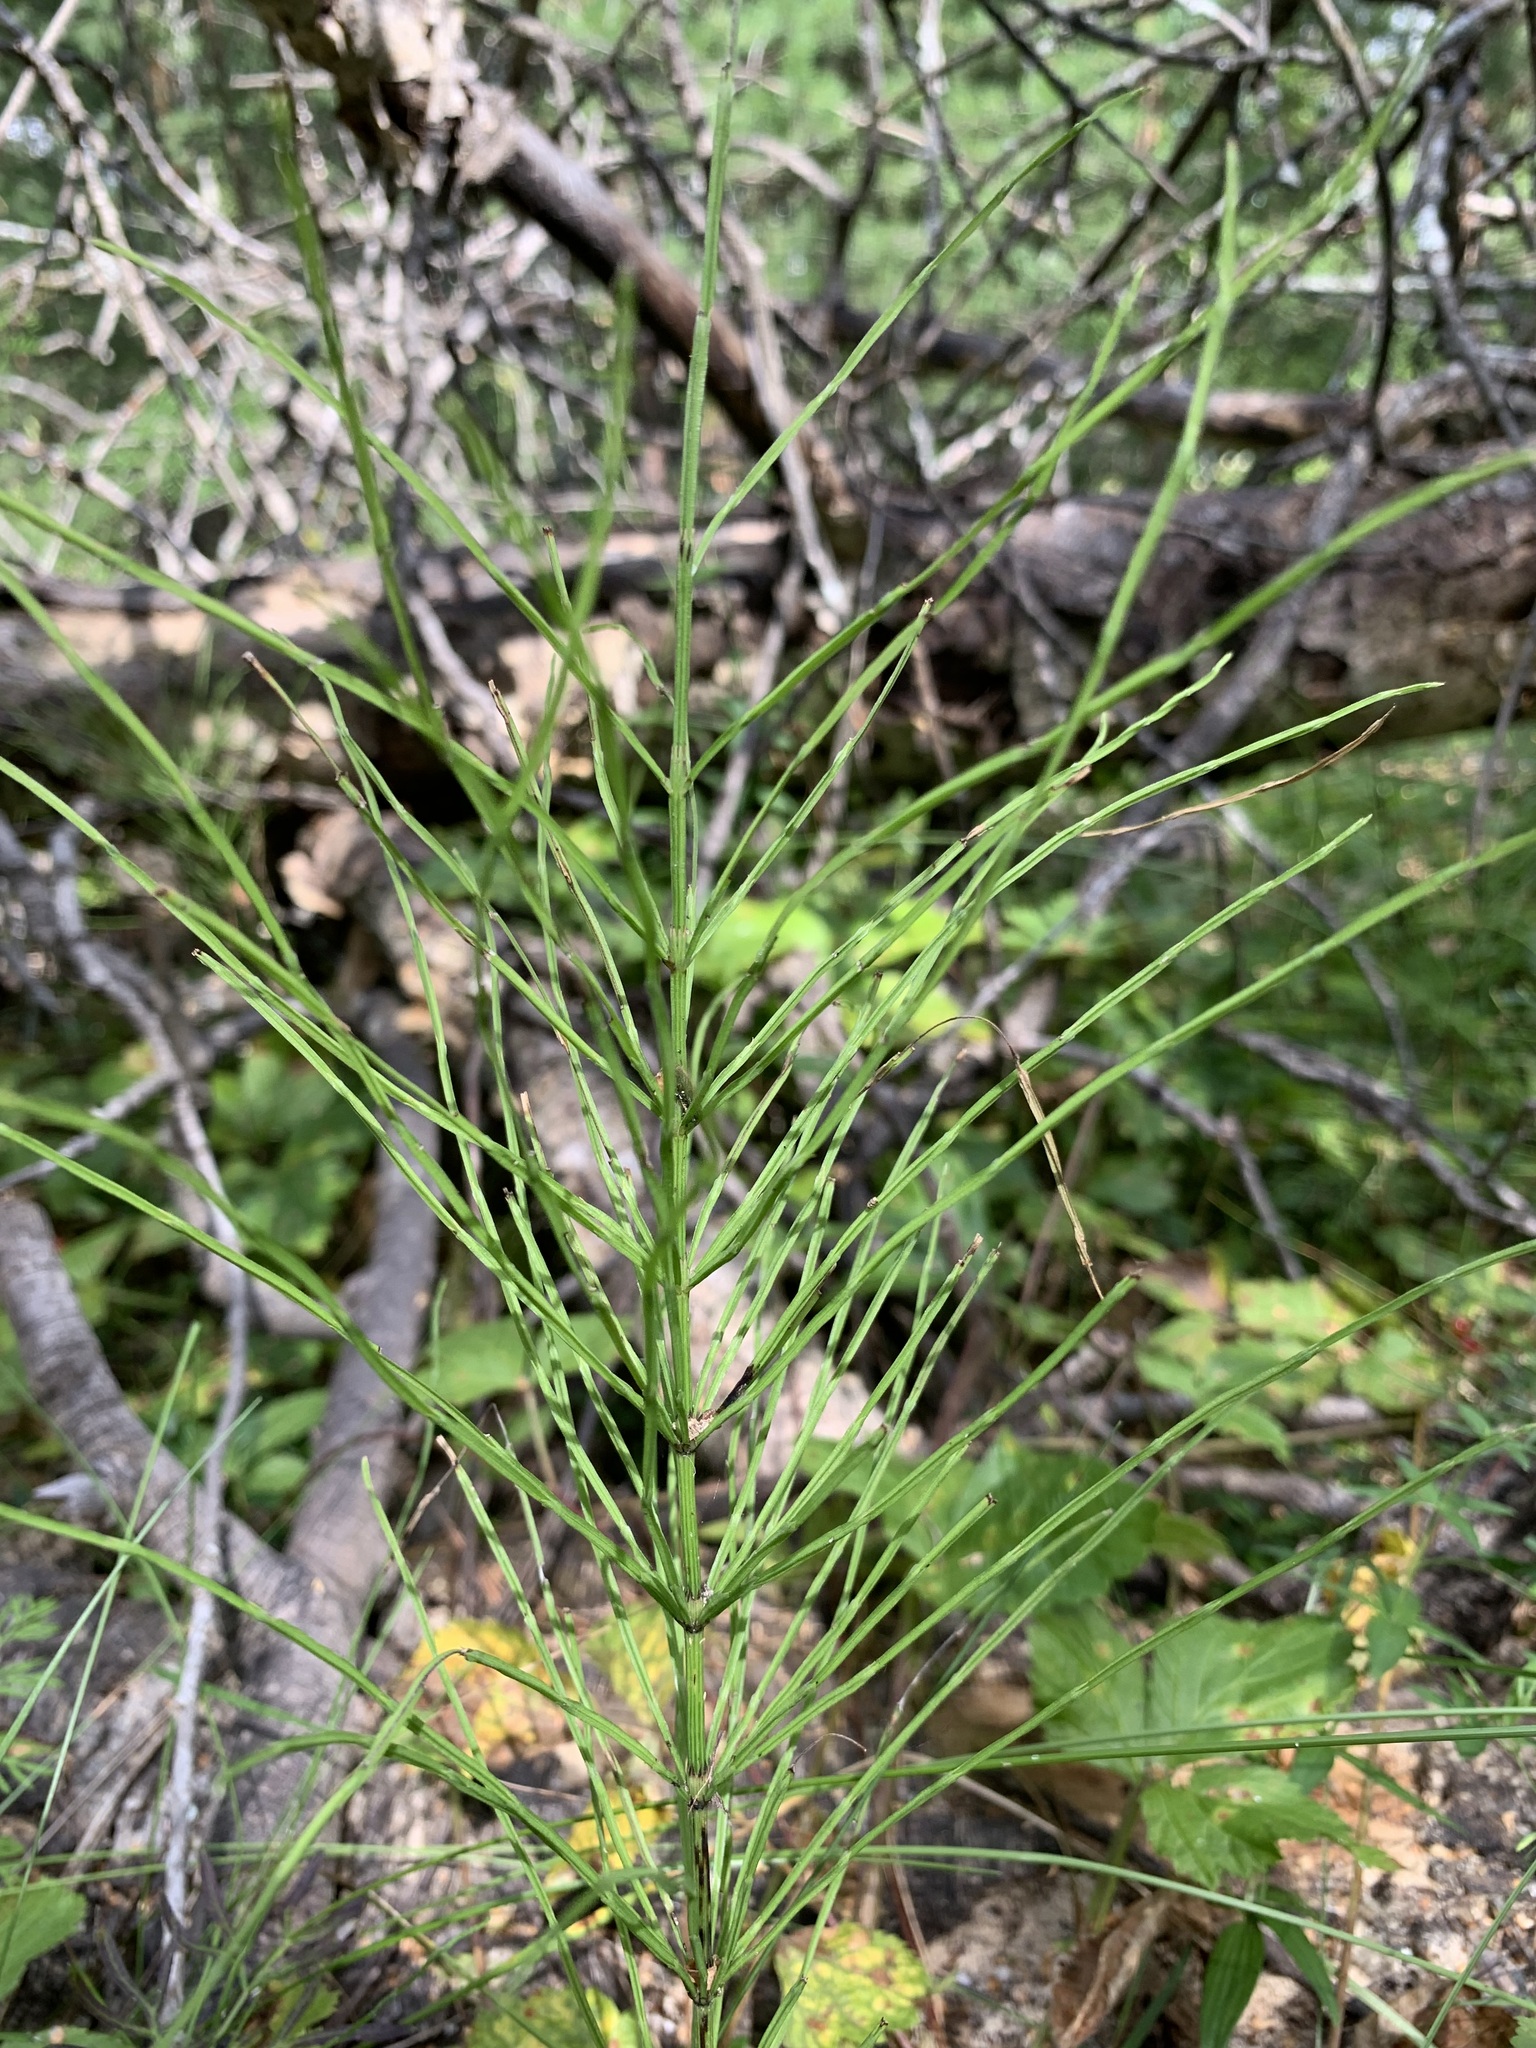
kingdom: Plantae
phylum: Tracheophyta
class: Polypodiopsida
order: Equisetales
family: Equisetaceae
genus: Equisetum
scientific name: Equisetum arvense
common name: Field horsetail
